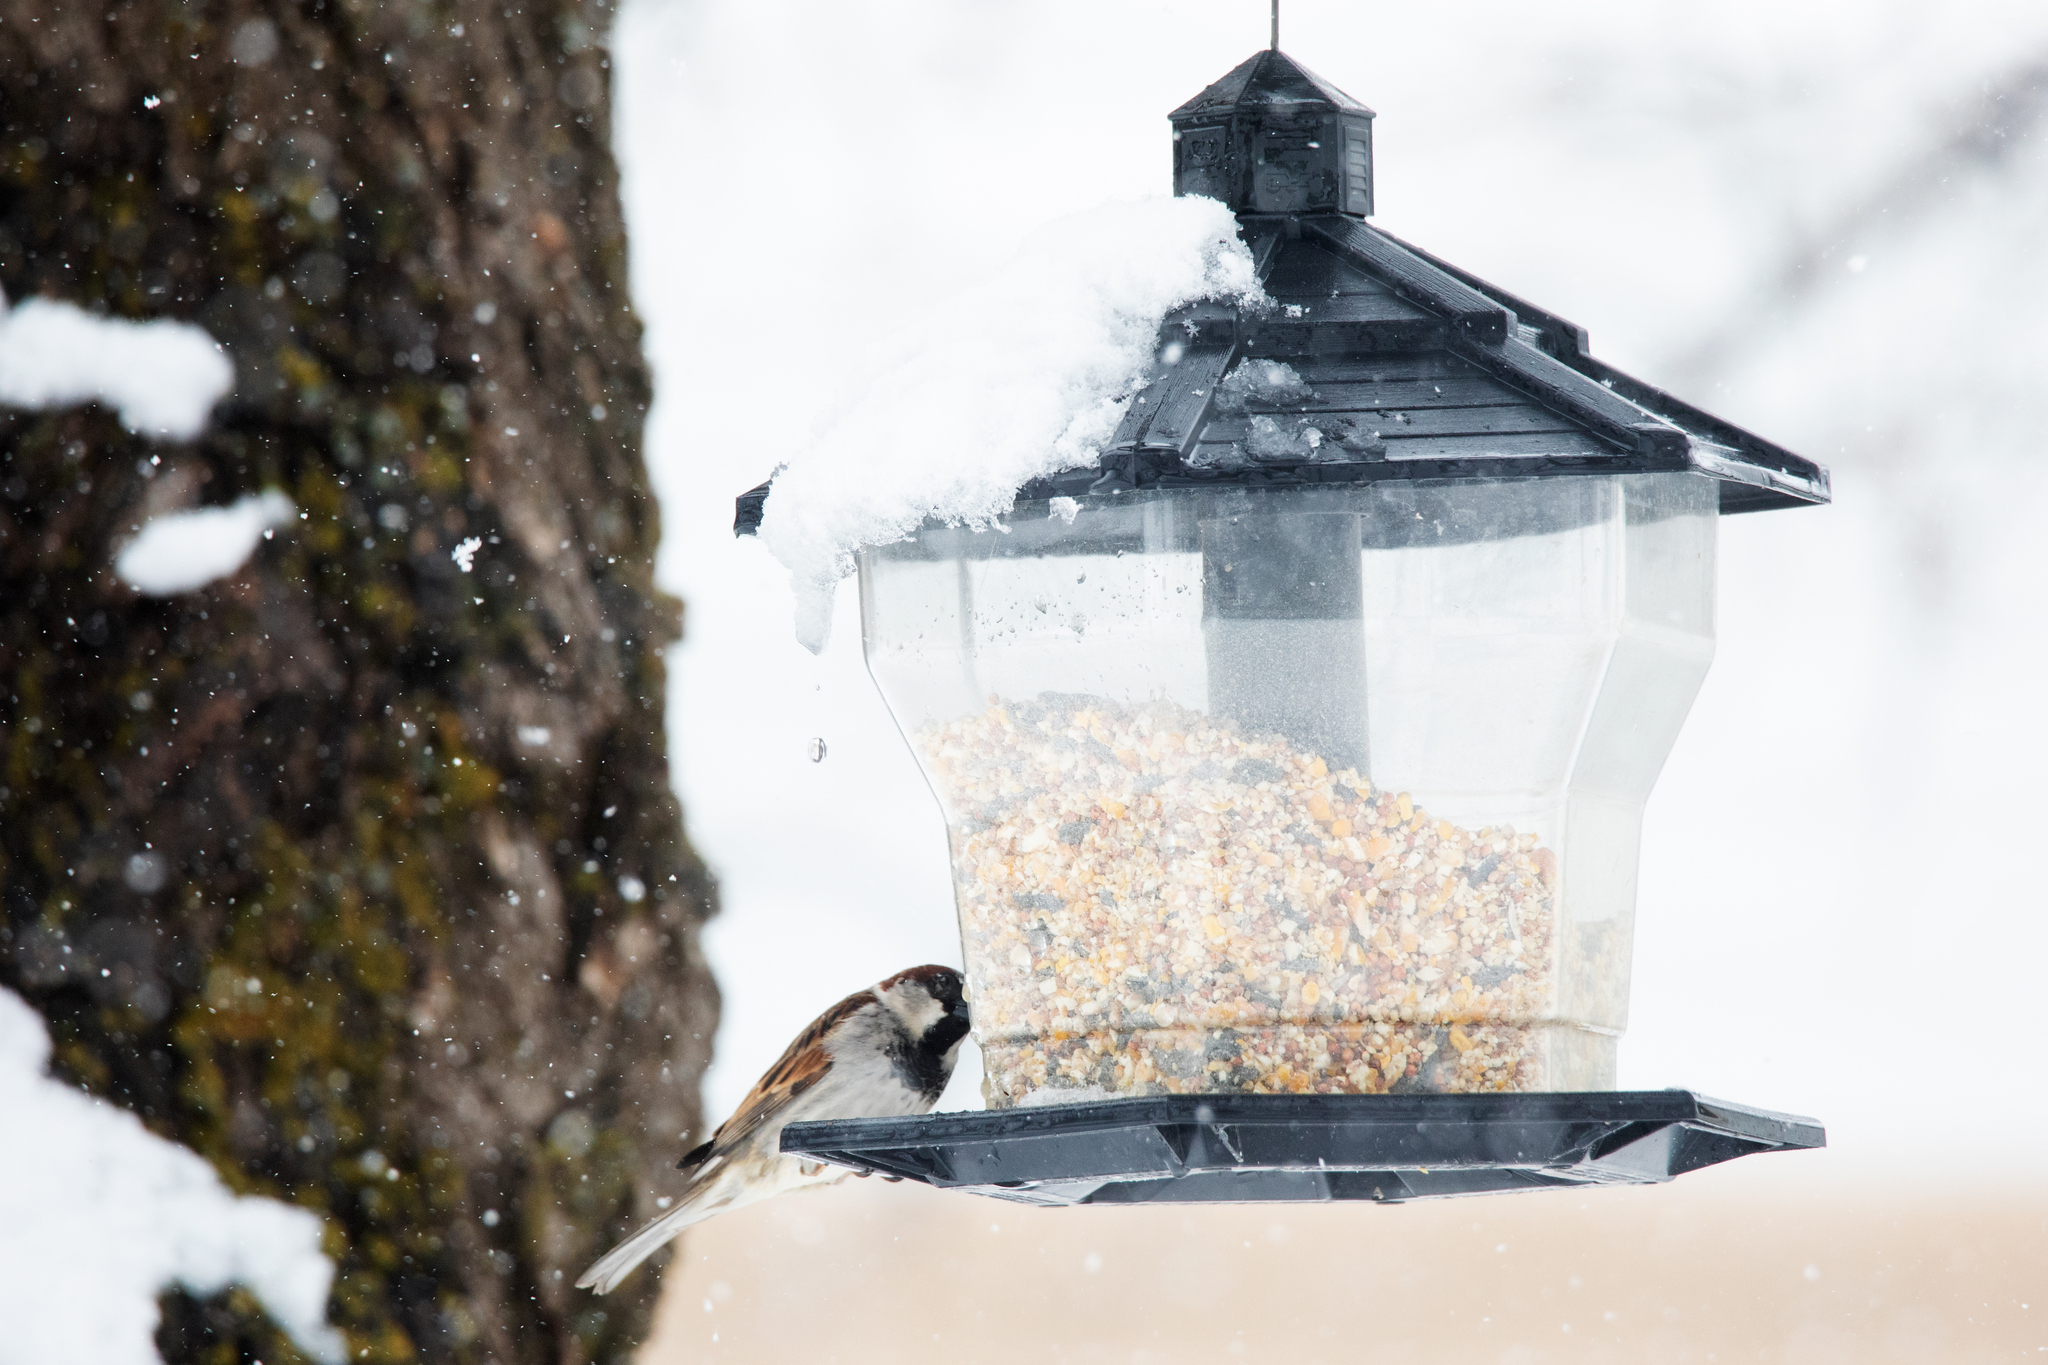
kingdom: Animalia
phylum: Chordata
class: Aves
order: Passeriformes
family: Passeridae
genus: Passer
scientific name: Passer domesticus
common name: House sparrow
